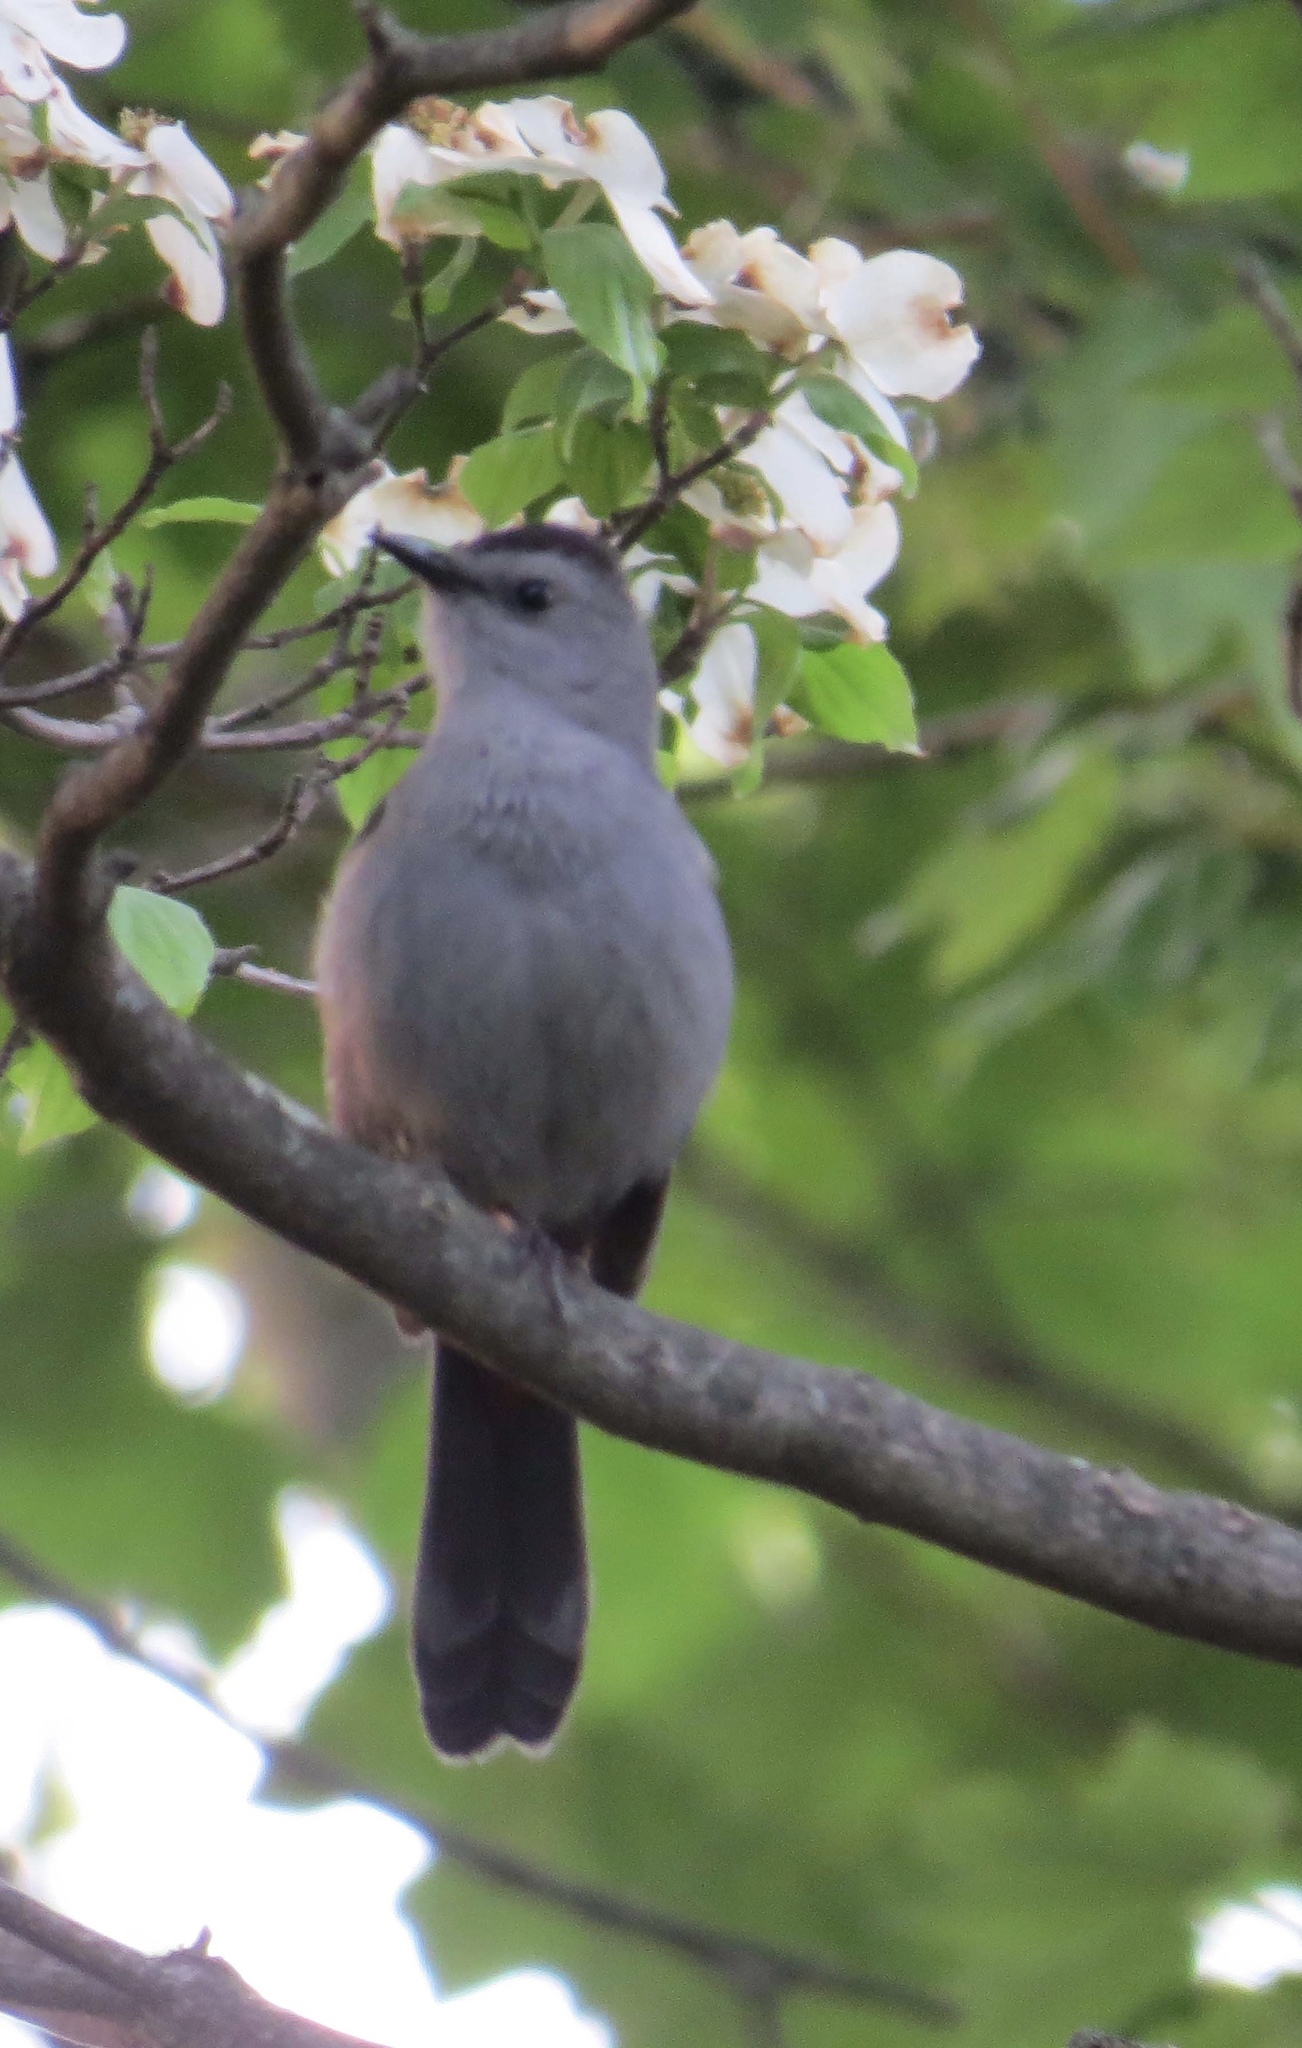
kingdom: Animalia
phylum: Chordata
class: Aves
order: Passeriformes
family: Mimidae
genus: Dumetella
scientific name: Dumetella carolinensis
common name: Gray catbird
